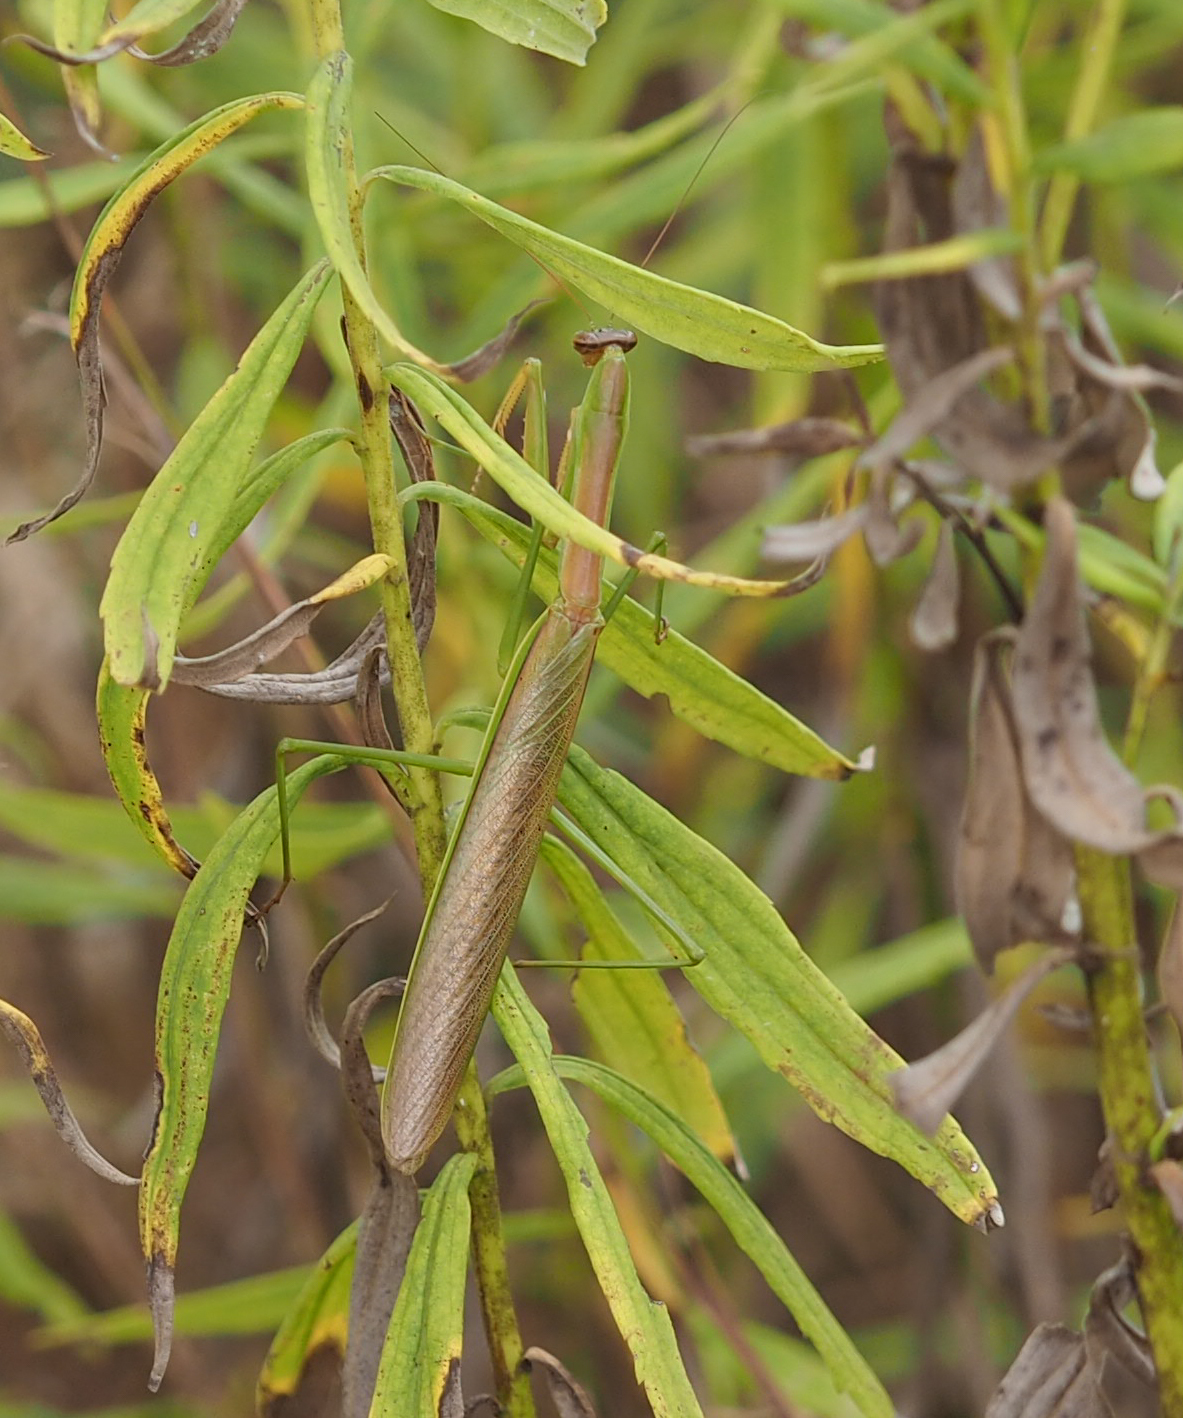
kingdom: Animalia
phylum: Arthropoda
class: Insecta
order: Mantodea
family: Mantidae
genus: Tenodera
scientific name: Tenodera sinensis
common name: Chinese mantis
